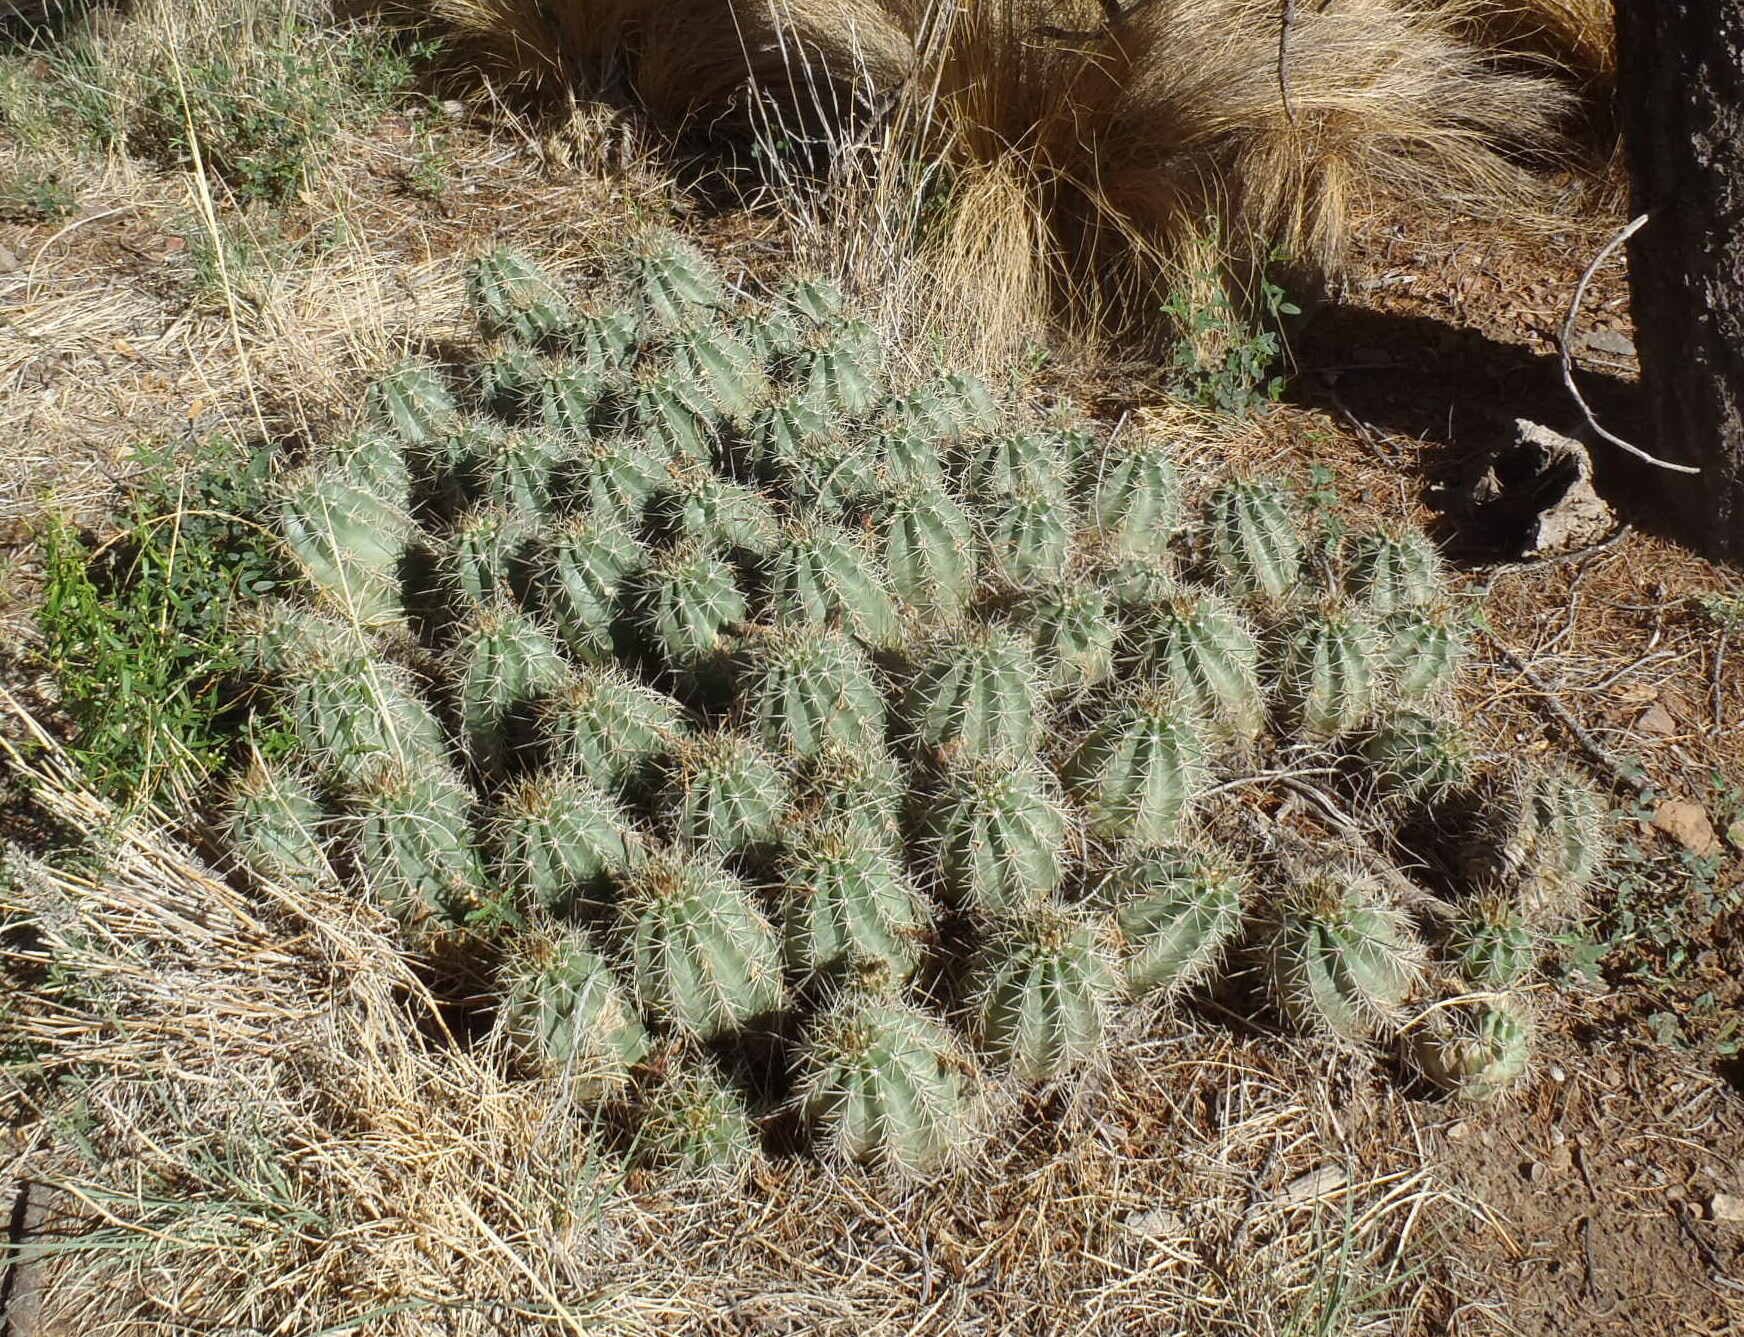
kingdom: Plantae
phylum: Tracheophyta
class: Magnoliopsida
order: Caryophyllales
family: Cactaceae
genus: Echinocereus
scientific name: Echinocereus coccineus
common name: Scarlet hedgehog cactus
